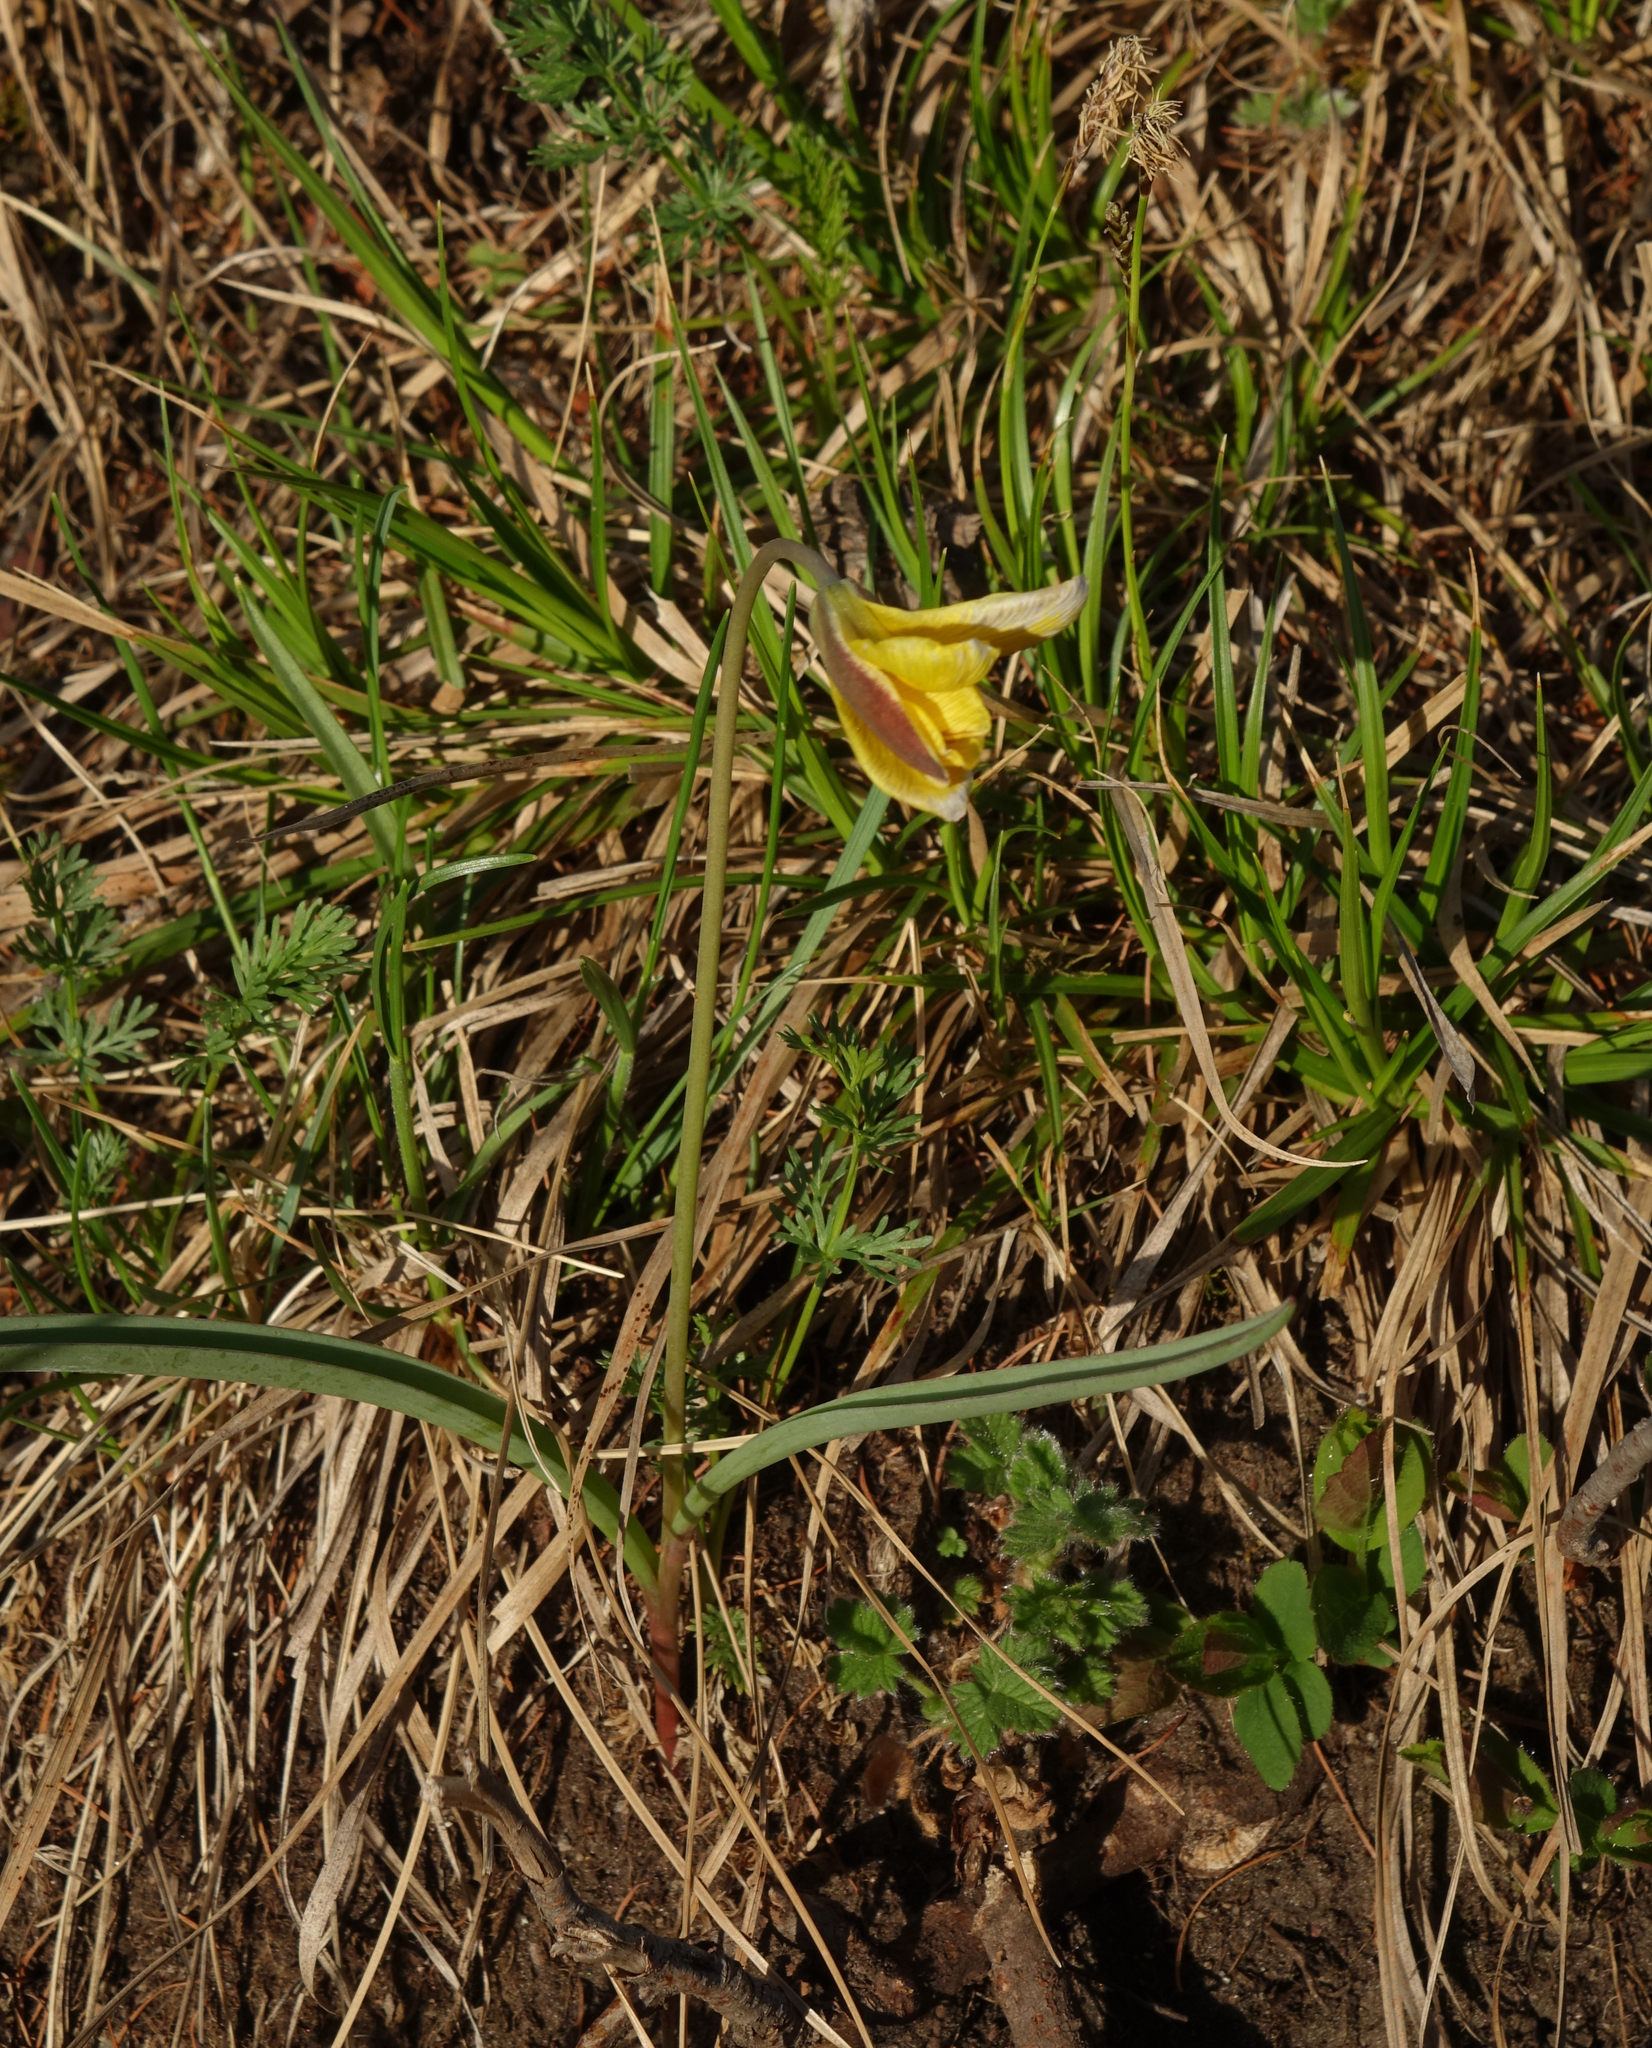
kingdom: Plantae
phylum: Tracheophyta
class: Liliopsida
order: Liliales
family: Liliaceae
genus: Tulipa
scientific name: Tulipa uniflora
